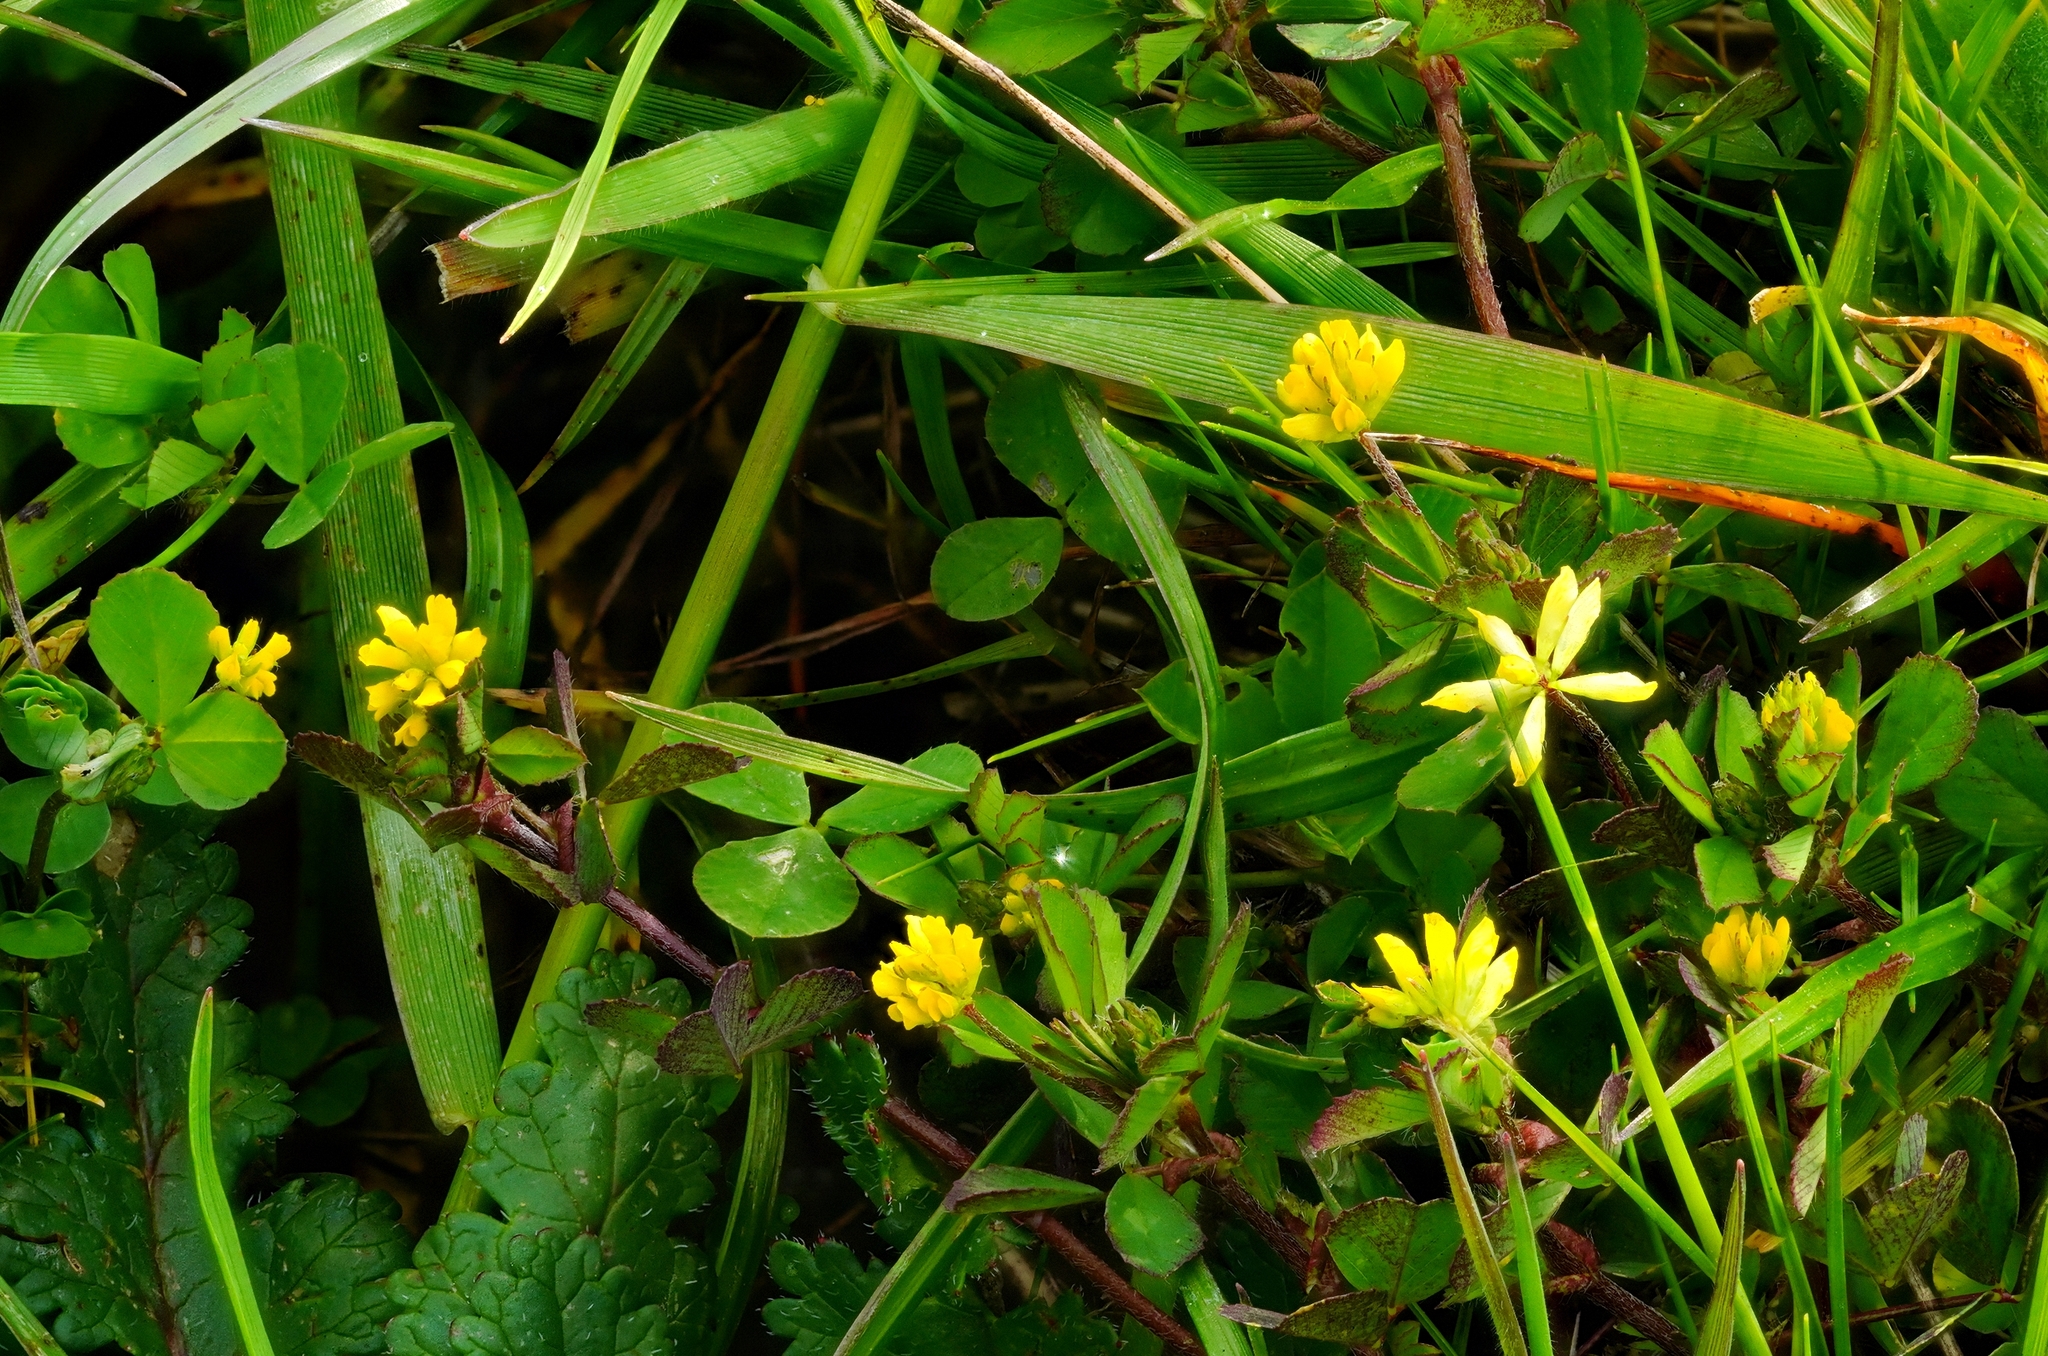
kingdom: Plantae
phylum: Tracheophyta
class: Magnoliopsida
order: Fabales
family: Fabaceae
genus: Trifolium
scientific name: Trifolium dubium
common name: Suckling clover
